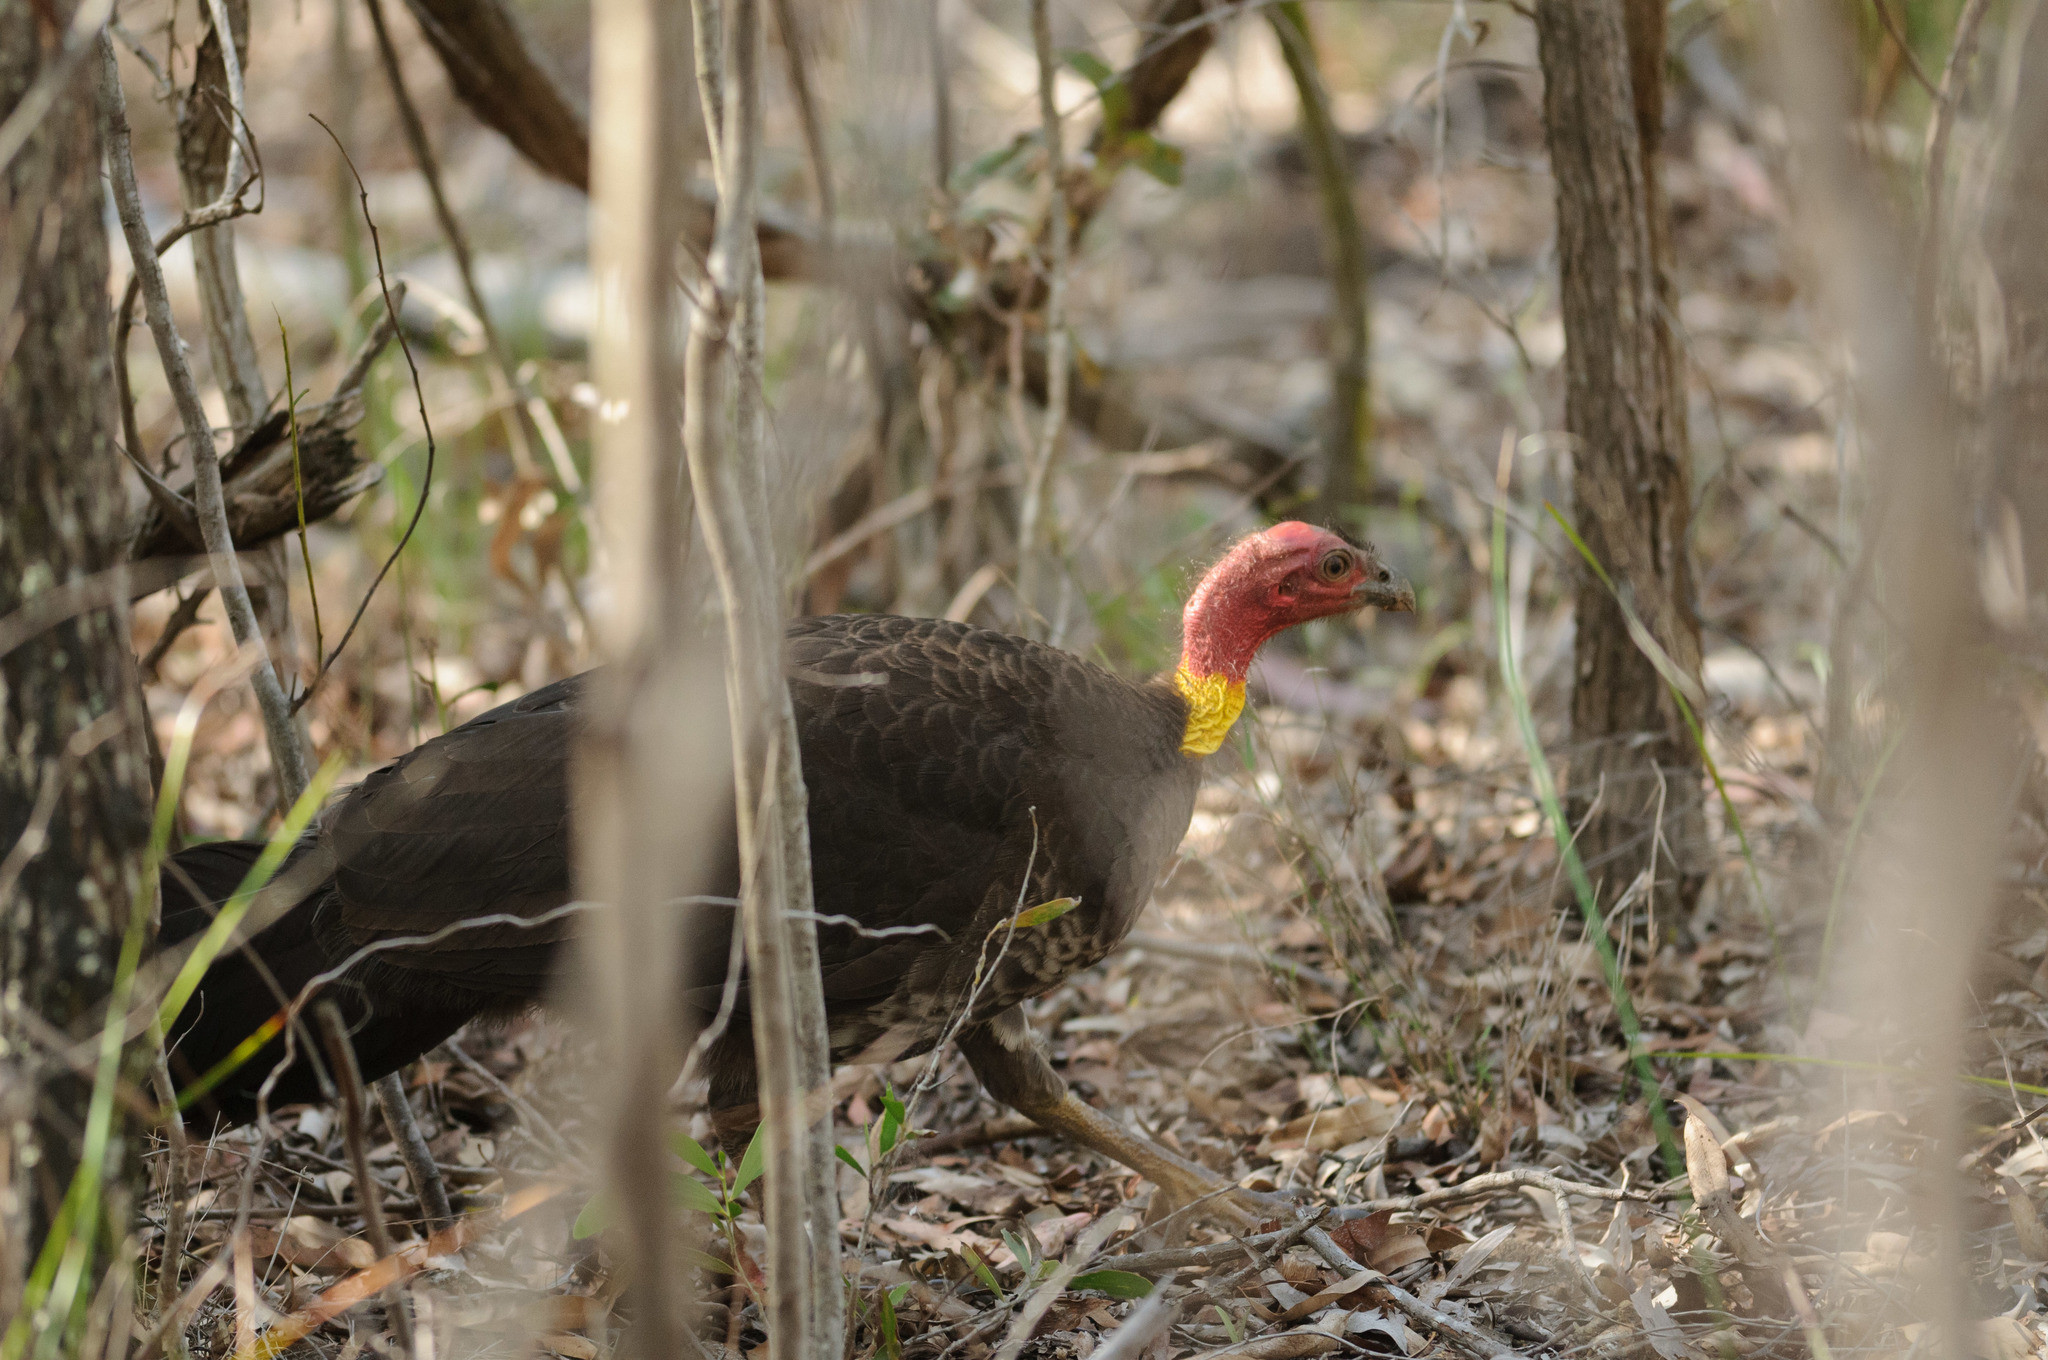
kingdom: Animalia
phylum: Chordata
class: Aves
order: Galliformes
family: Megapodiidae
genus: Alectura
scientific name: Alectura lathami
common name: Australian brushturkey
